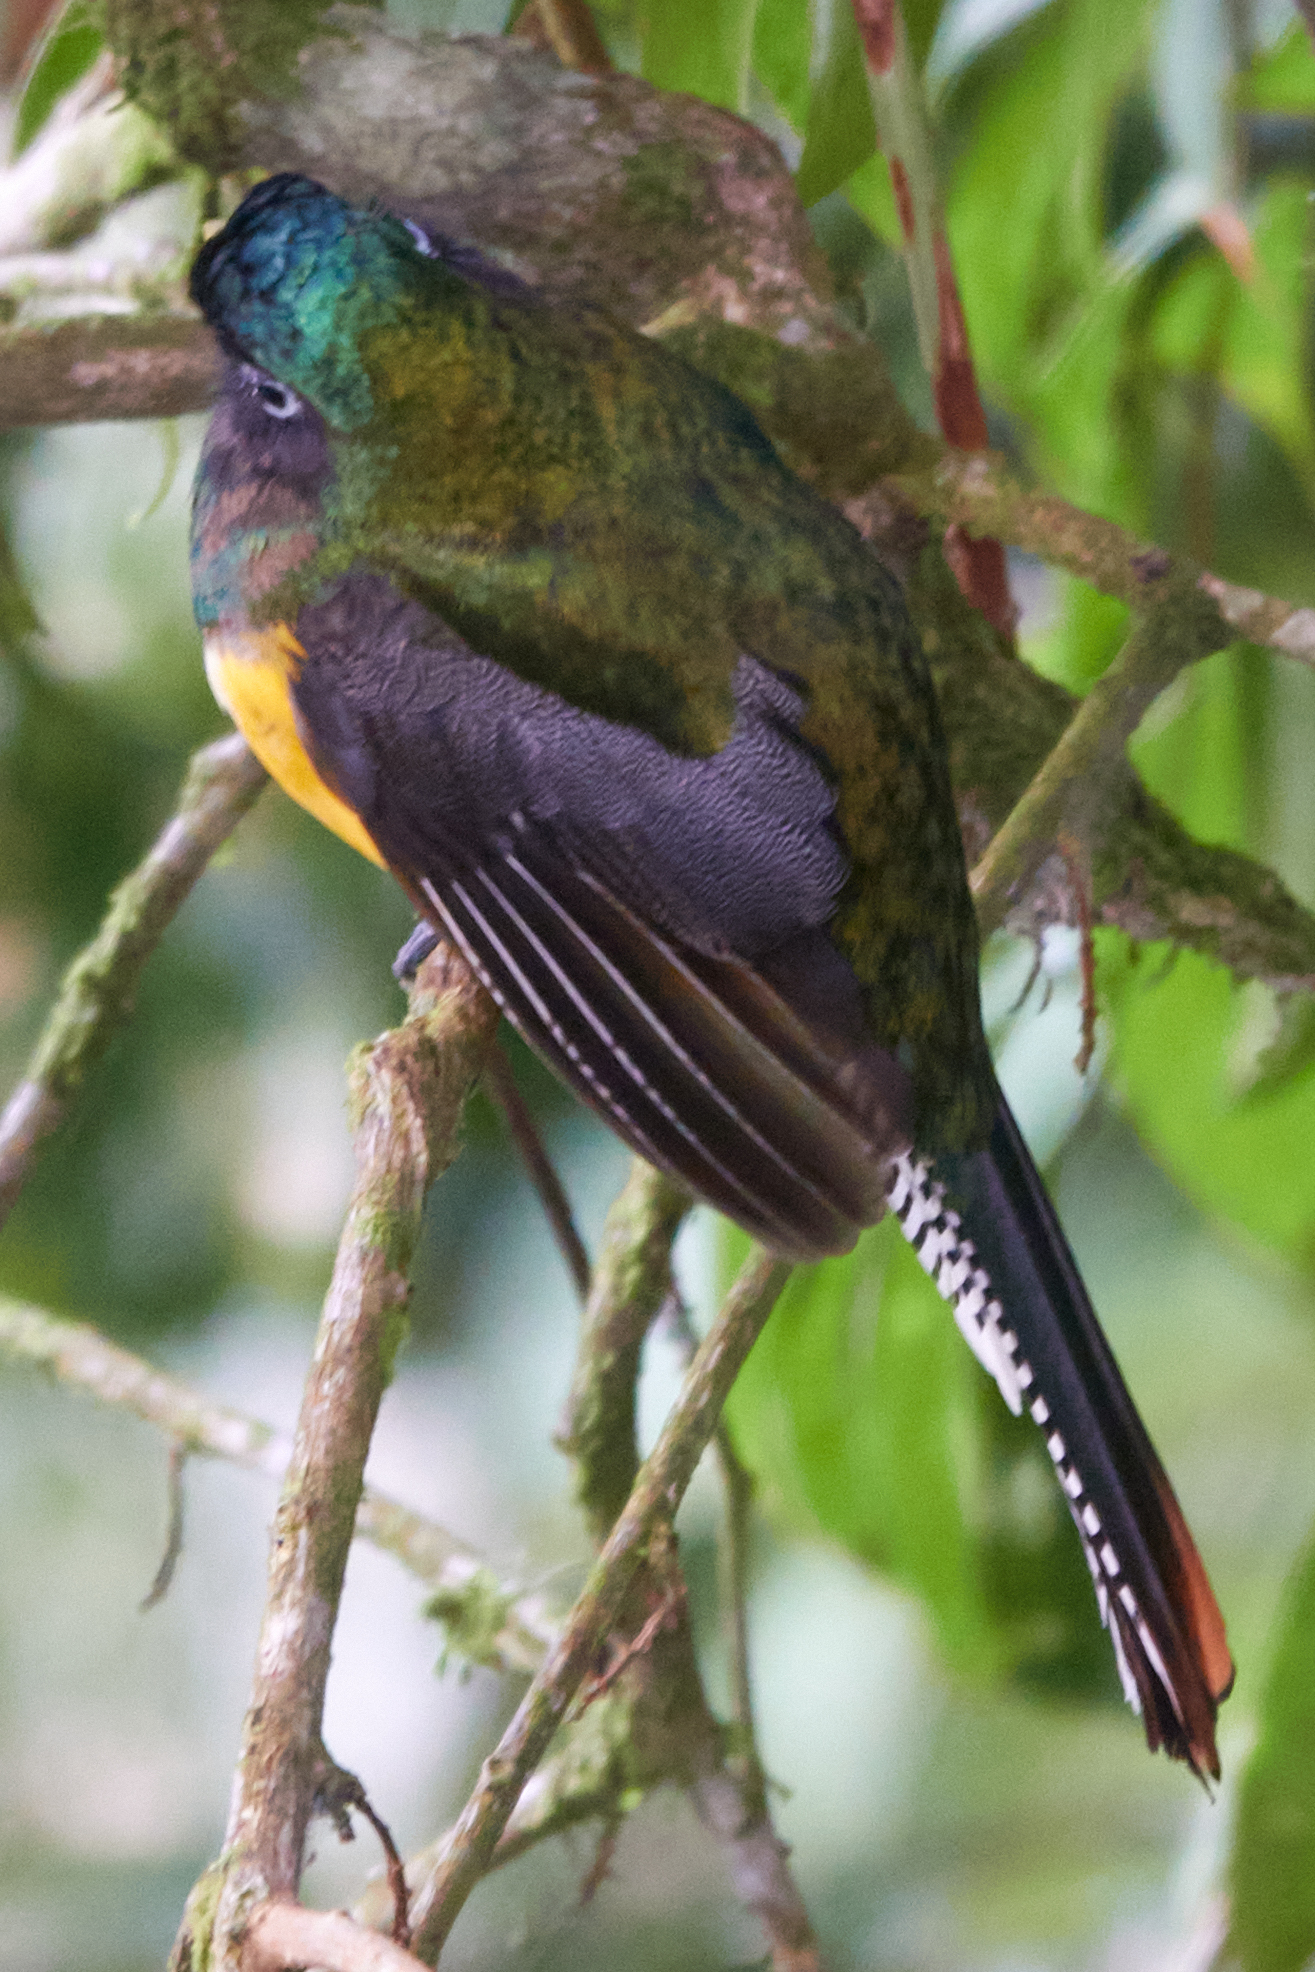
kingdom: Animalia
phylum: Chordata
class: Aves
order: Trogoniformes
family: Trogonidae
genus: Trogon
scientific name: Trogon rufus
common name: Black-throated trogon
